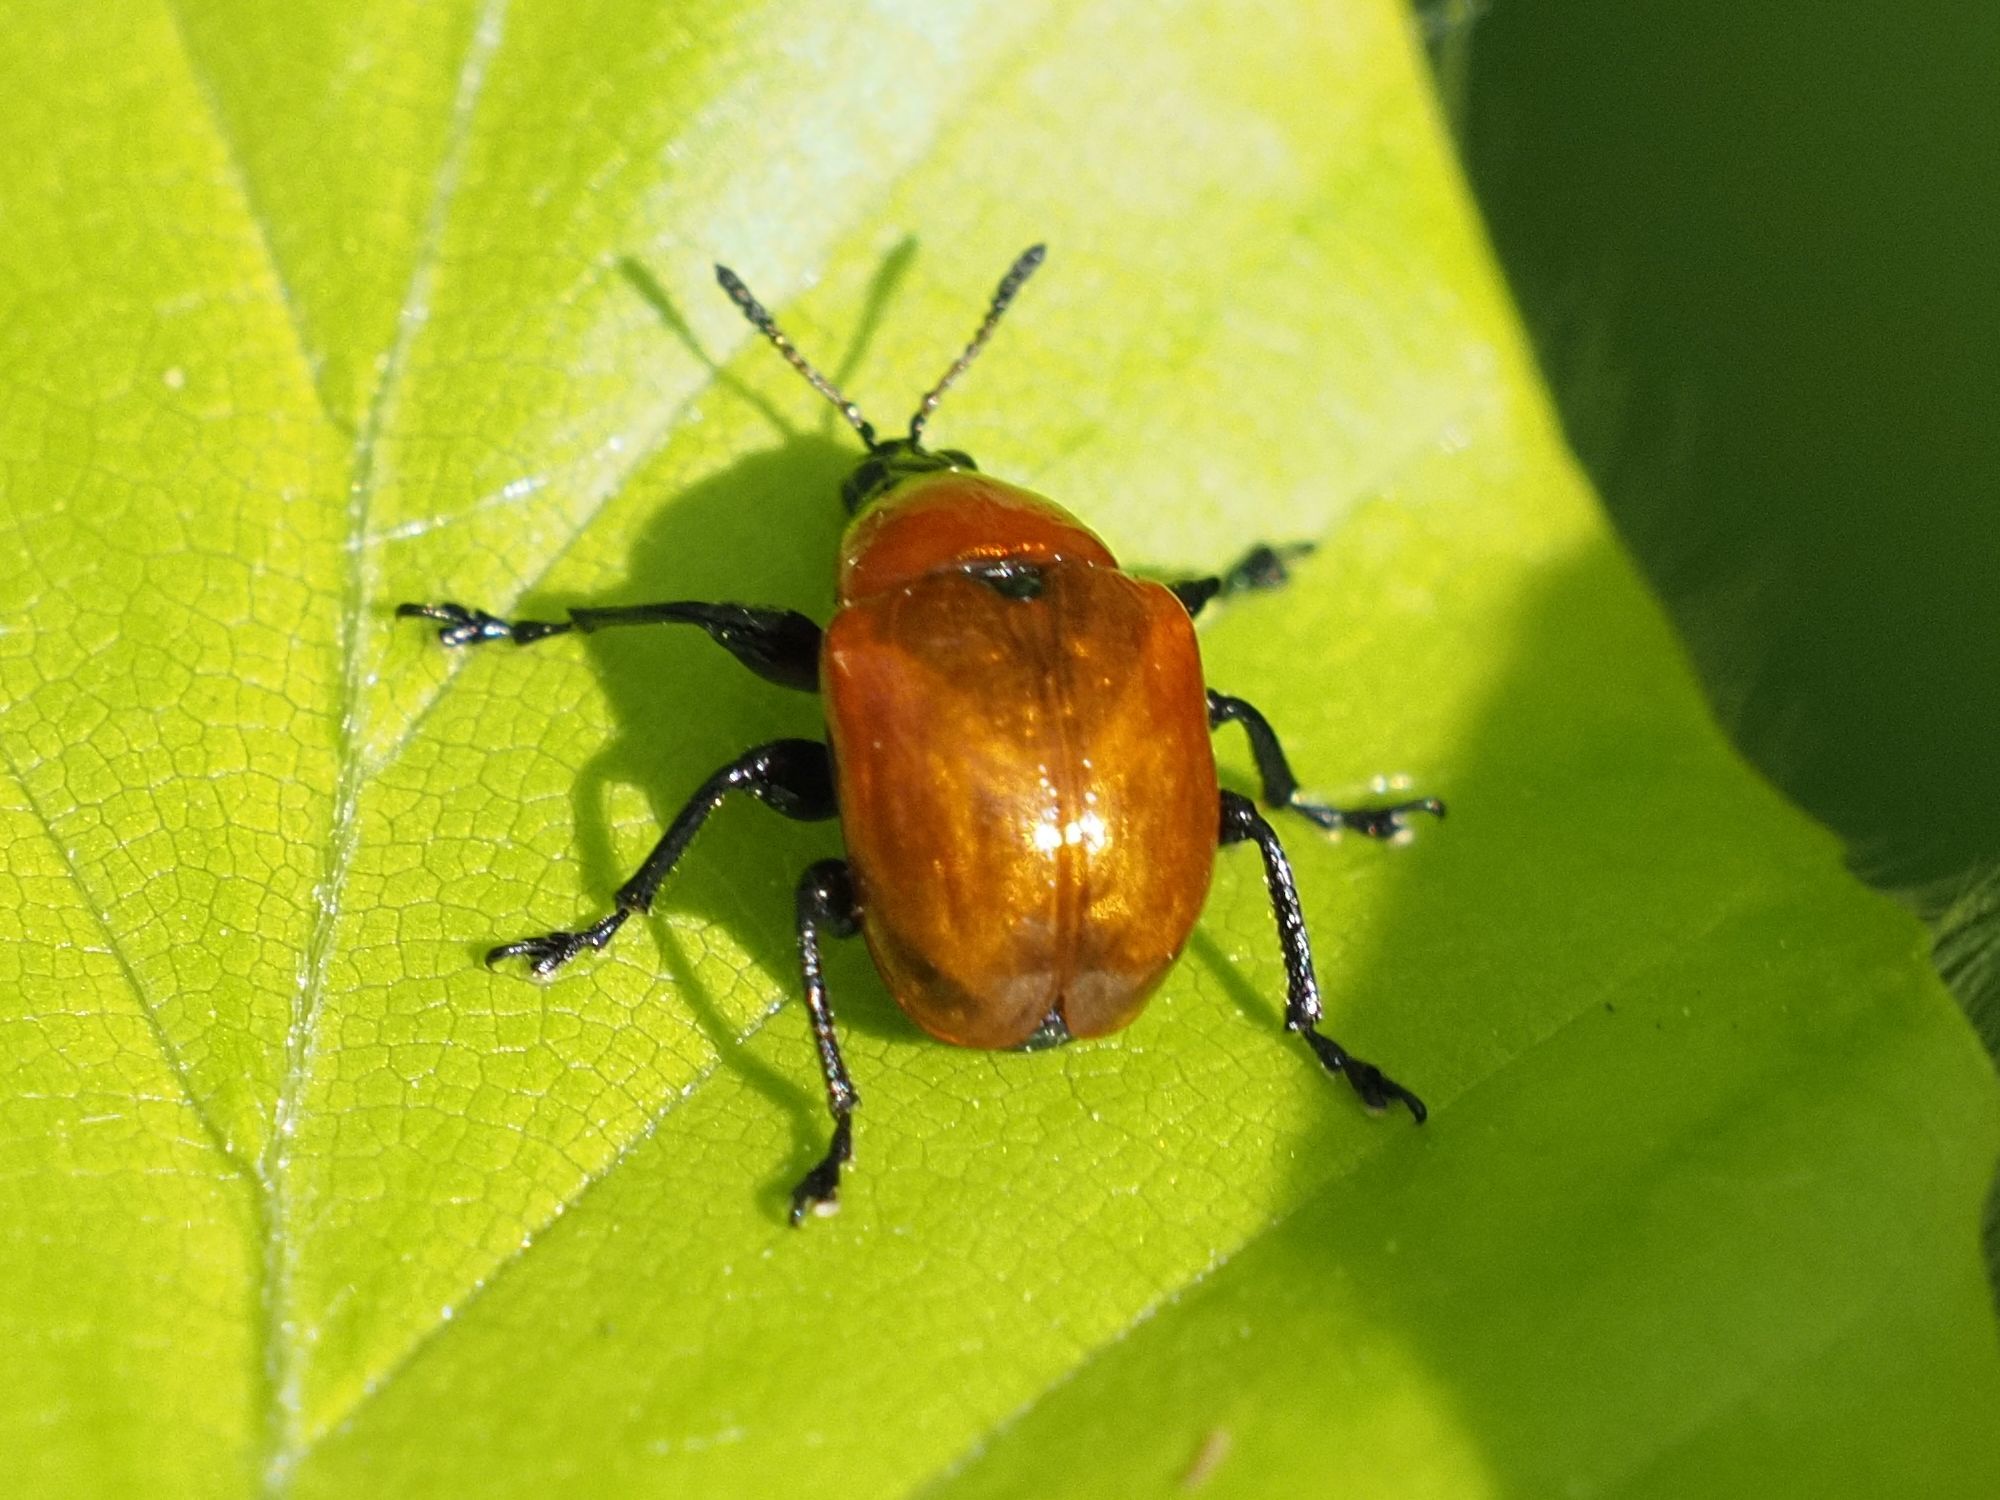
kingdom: Animalia
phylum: Arthropoda
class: Insecta
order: Coleoptera
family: Attelabidae
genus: Attelabus
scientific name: Attelabus nitens
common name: Oak leaf-roller
